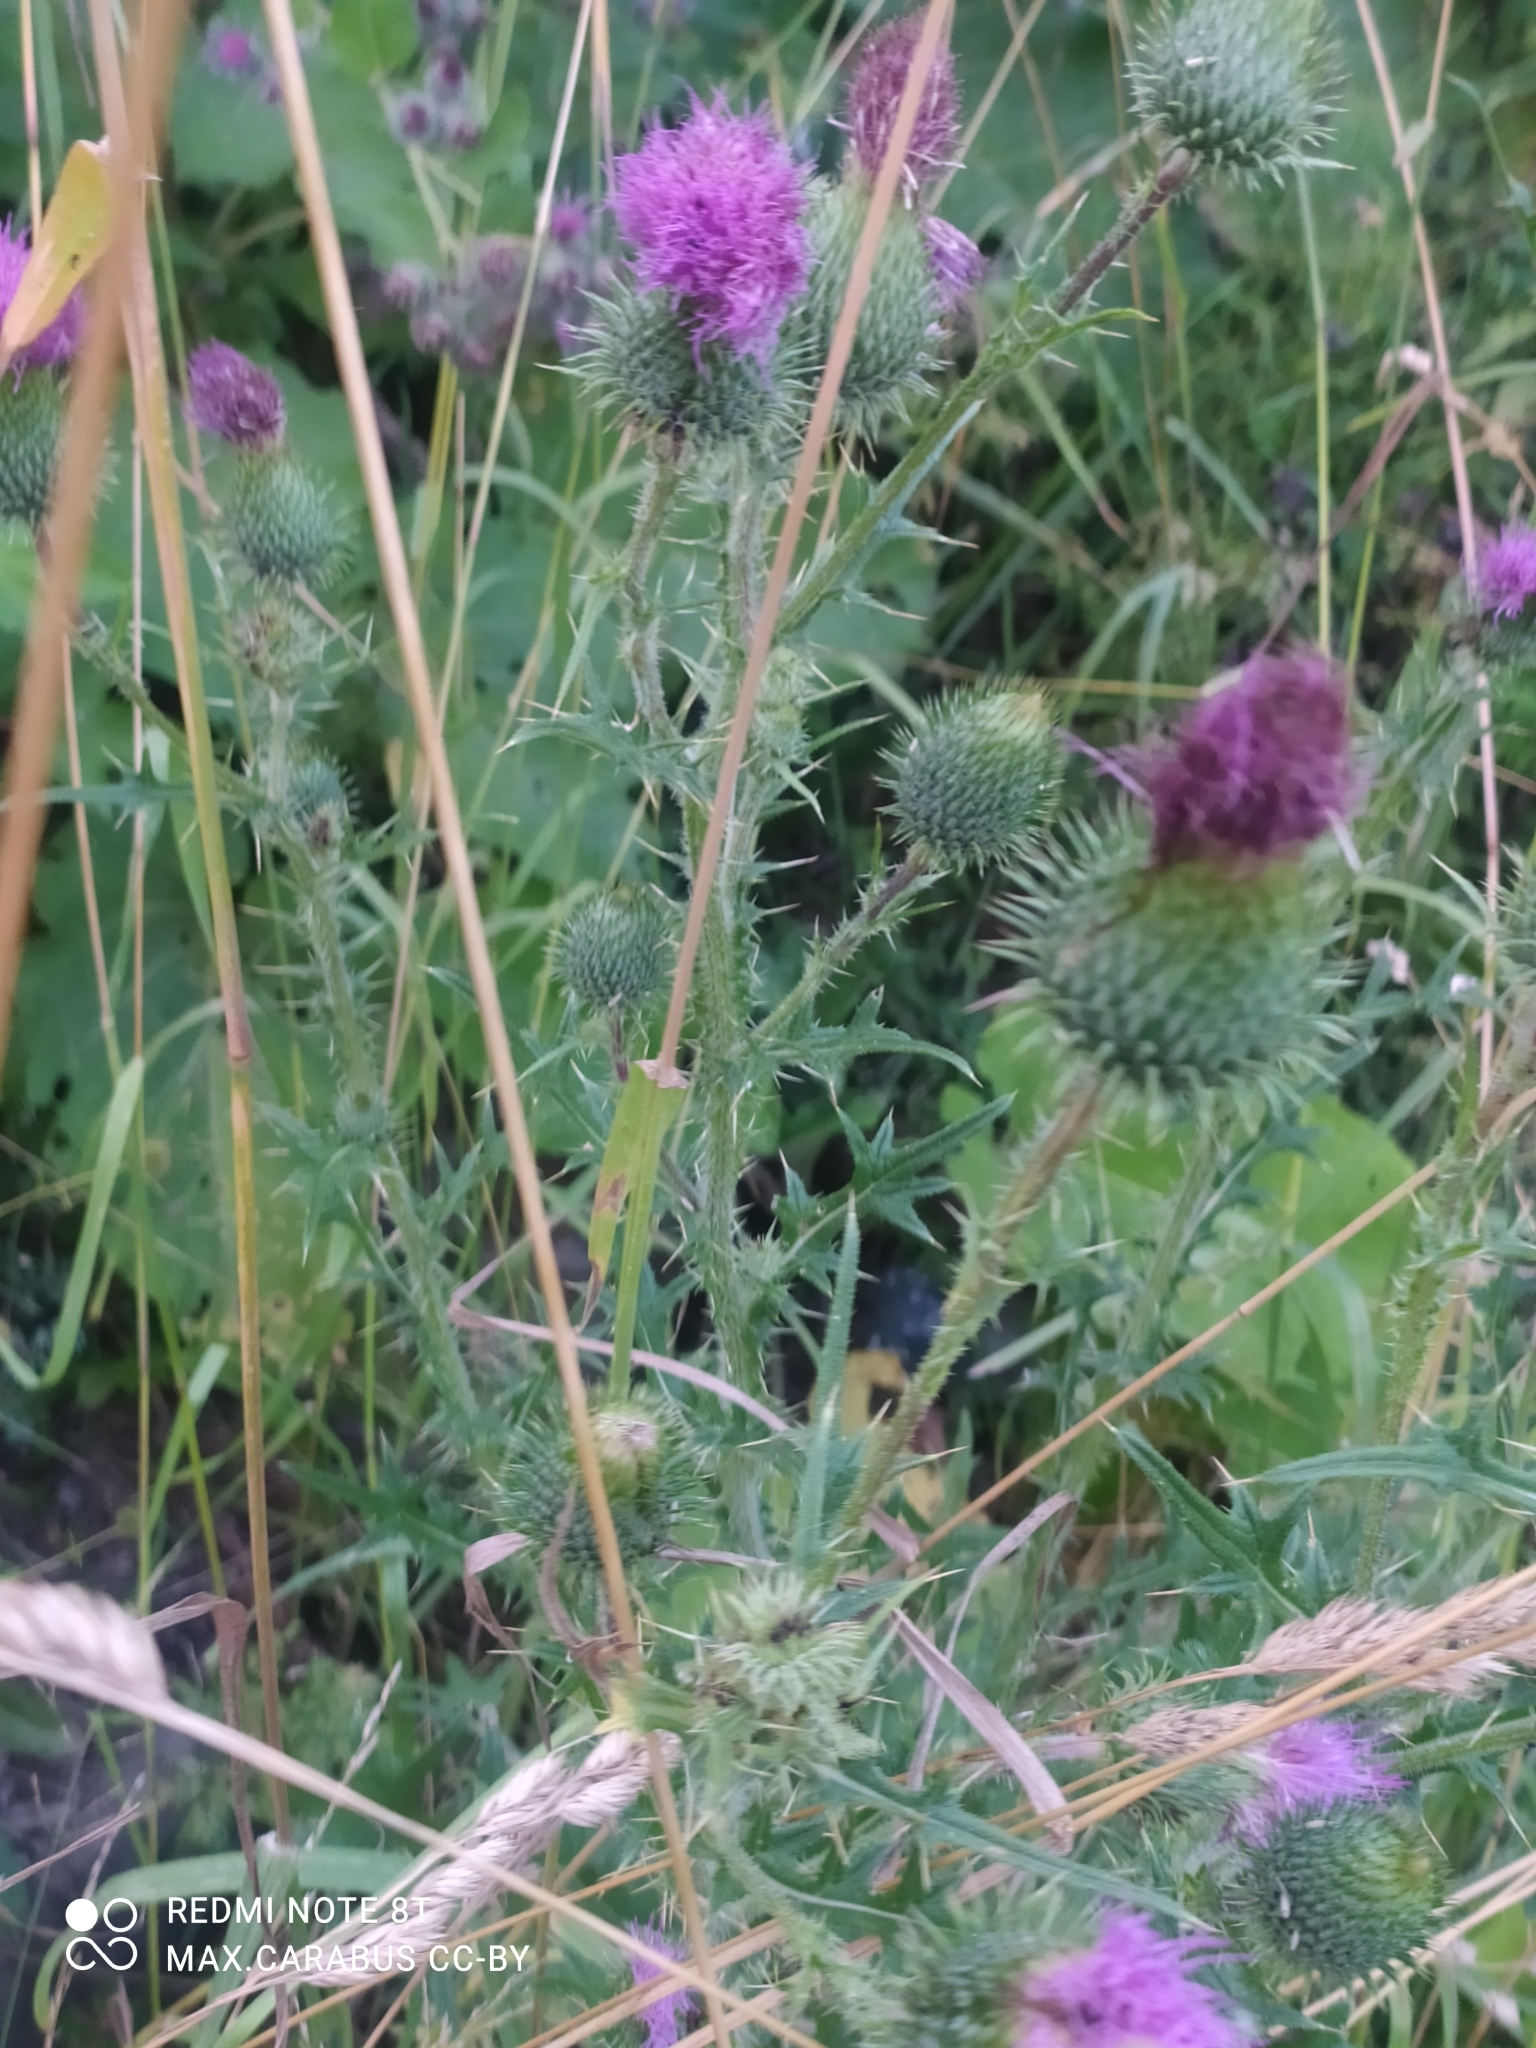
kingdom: Plantae
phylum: Tracheophyta
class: Magnoliopsida
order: Asterales
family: Asteraceae
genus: Cirsium
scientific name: Cirsium vulgare
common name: Bull thistle
